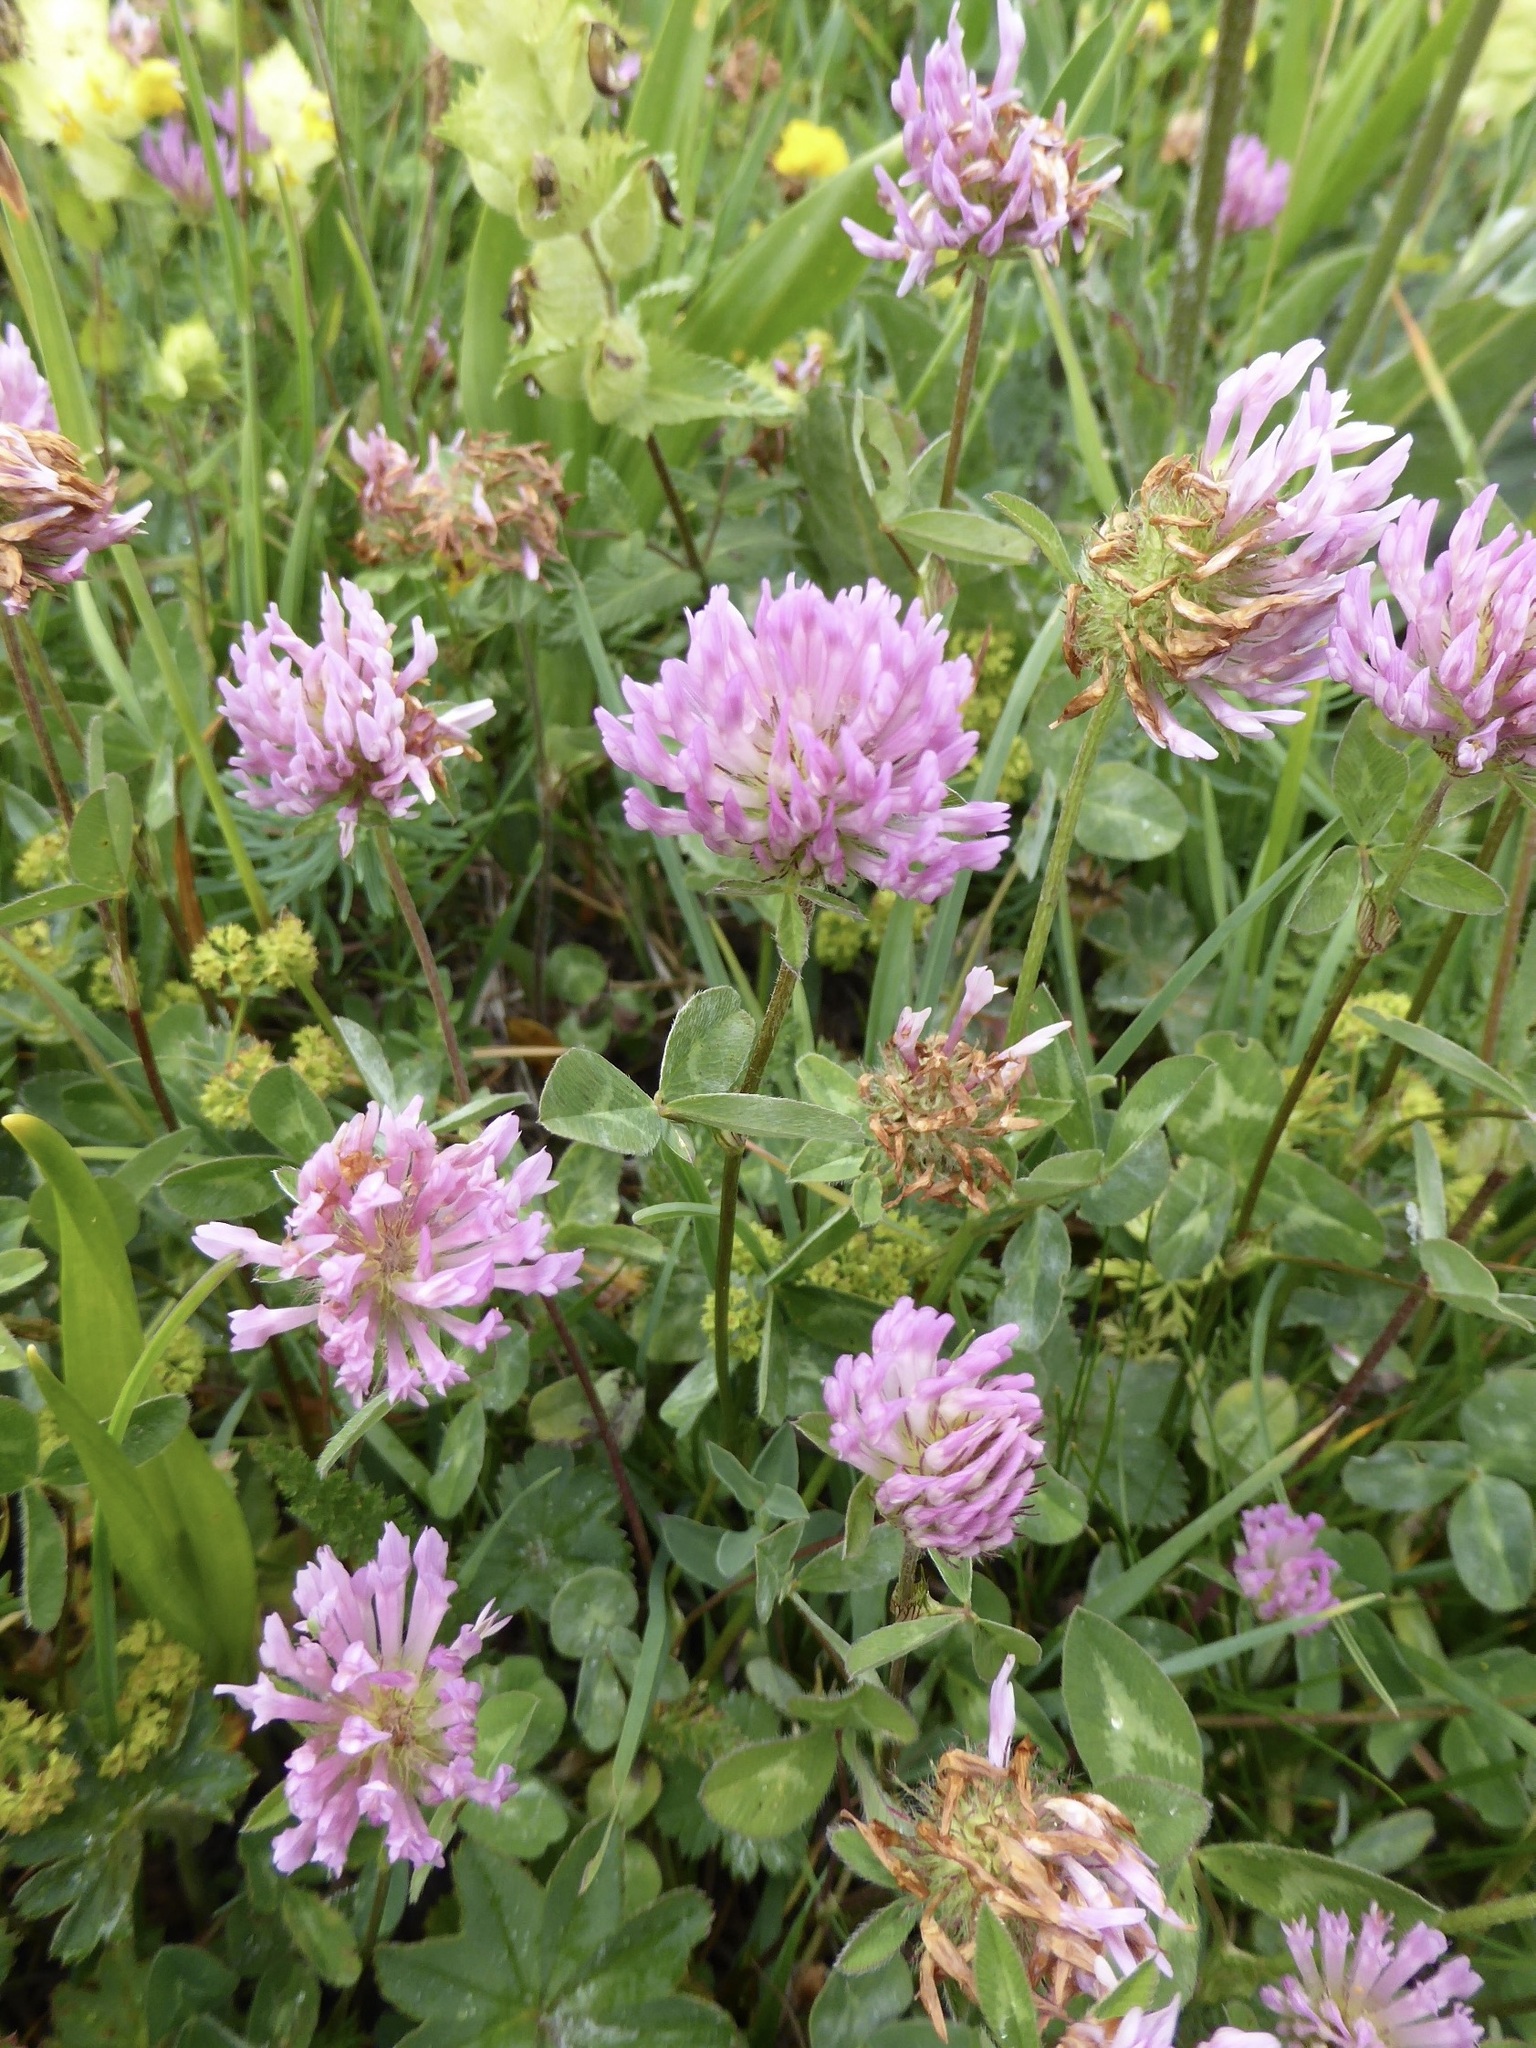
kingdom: Plantae
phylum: Tracheophyta
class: Magnoliopsida
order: Fabales
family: Fabaceae
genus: Trifolium
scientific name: Trifolium pratense
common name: Red clover
